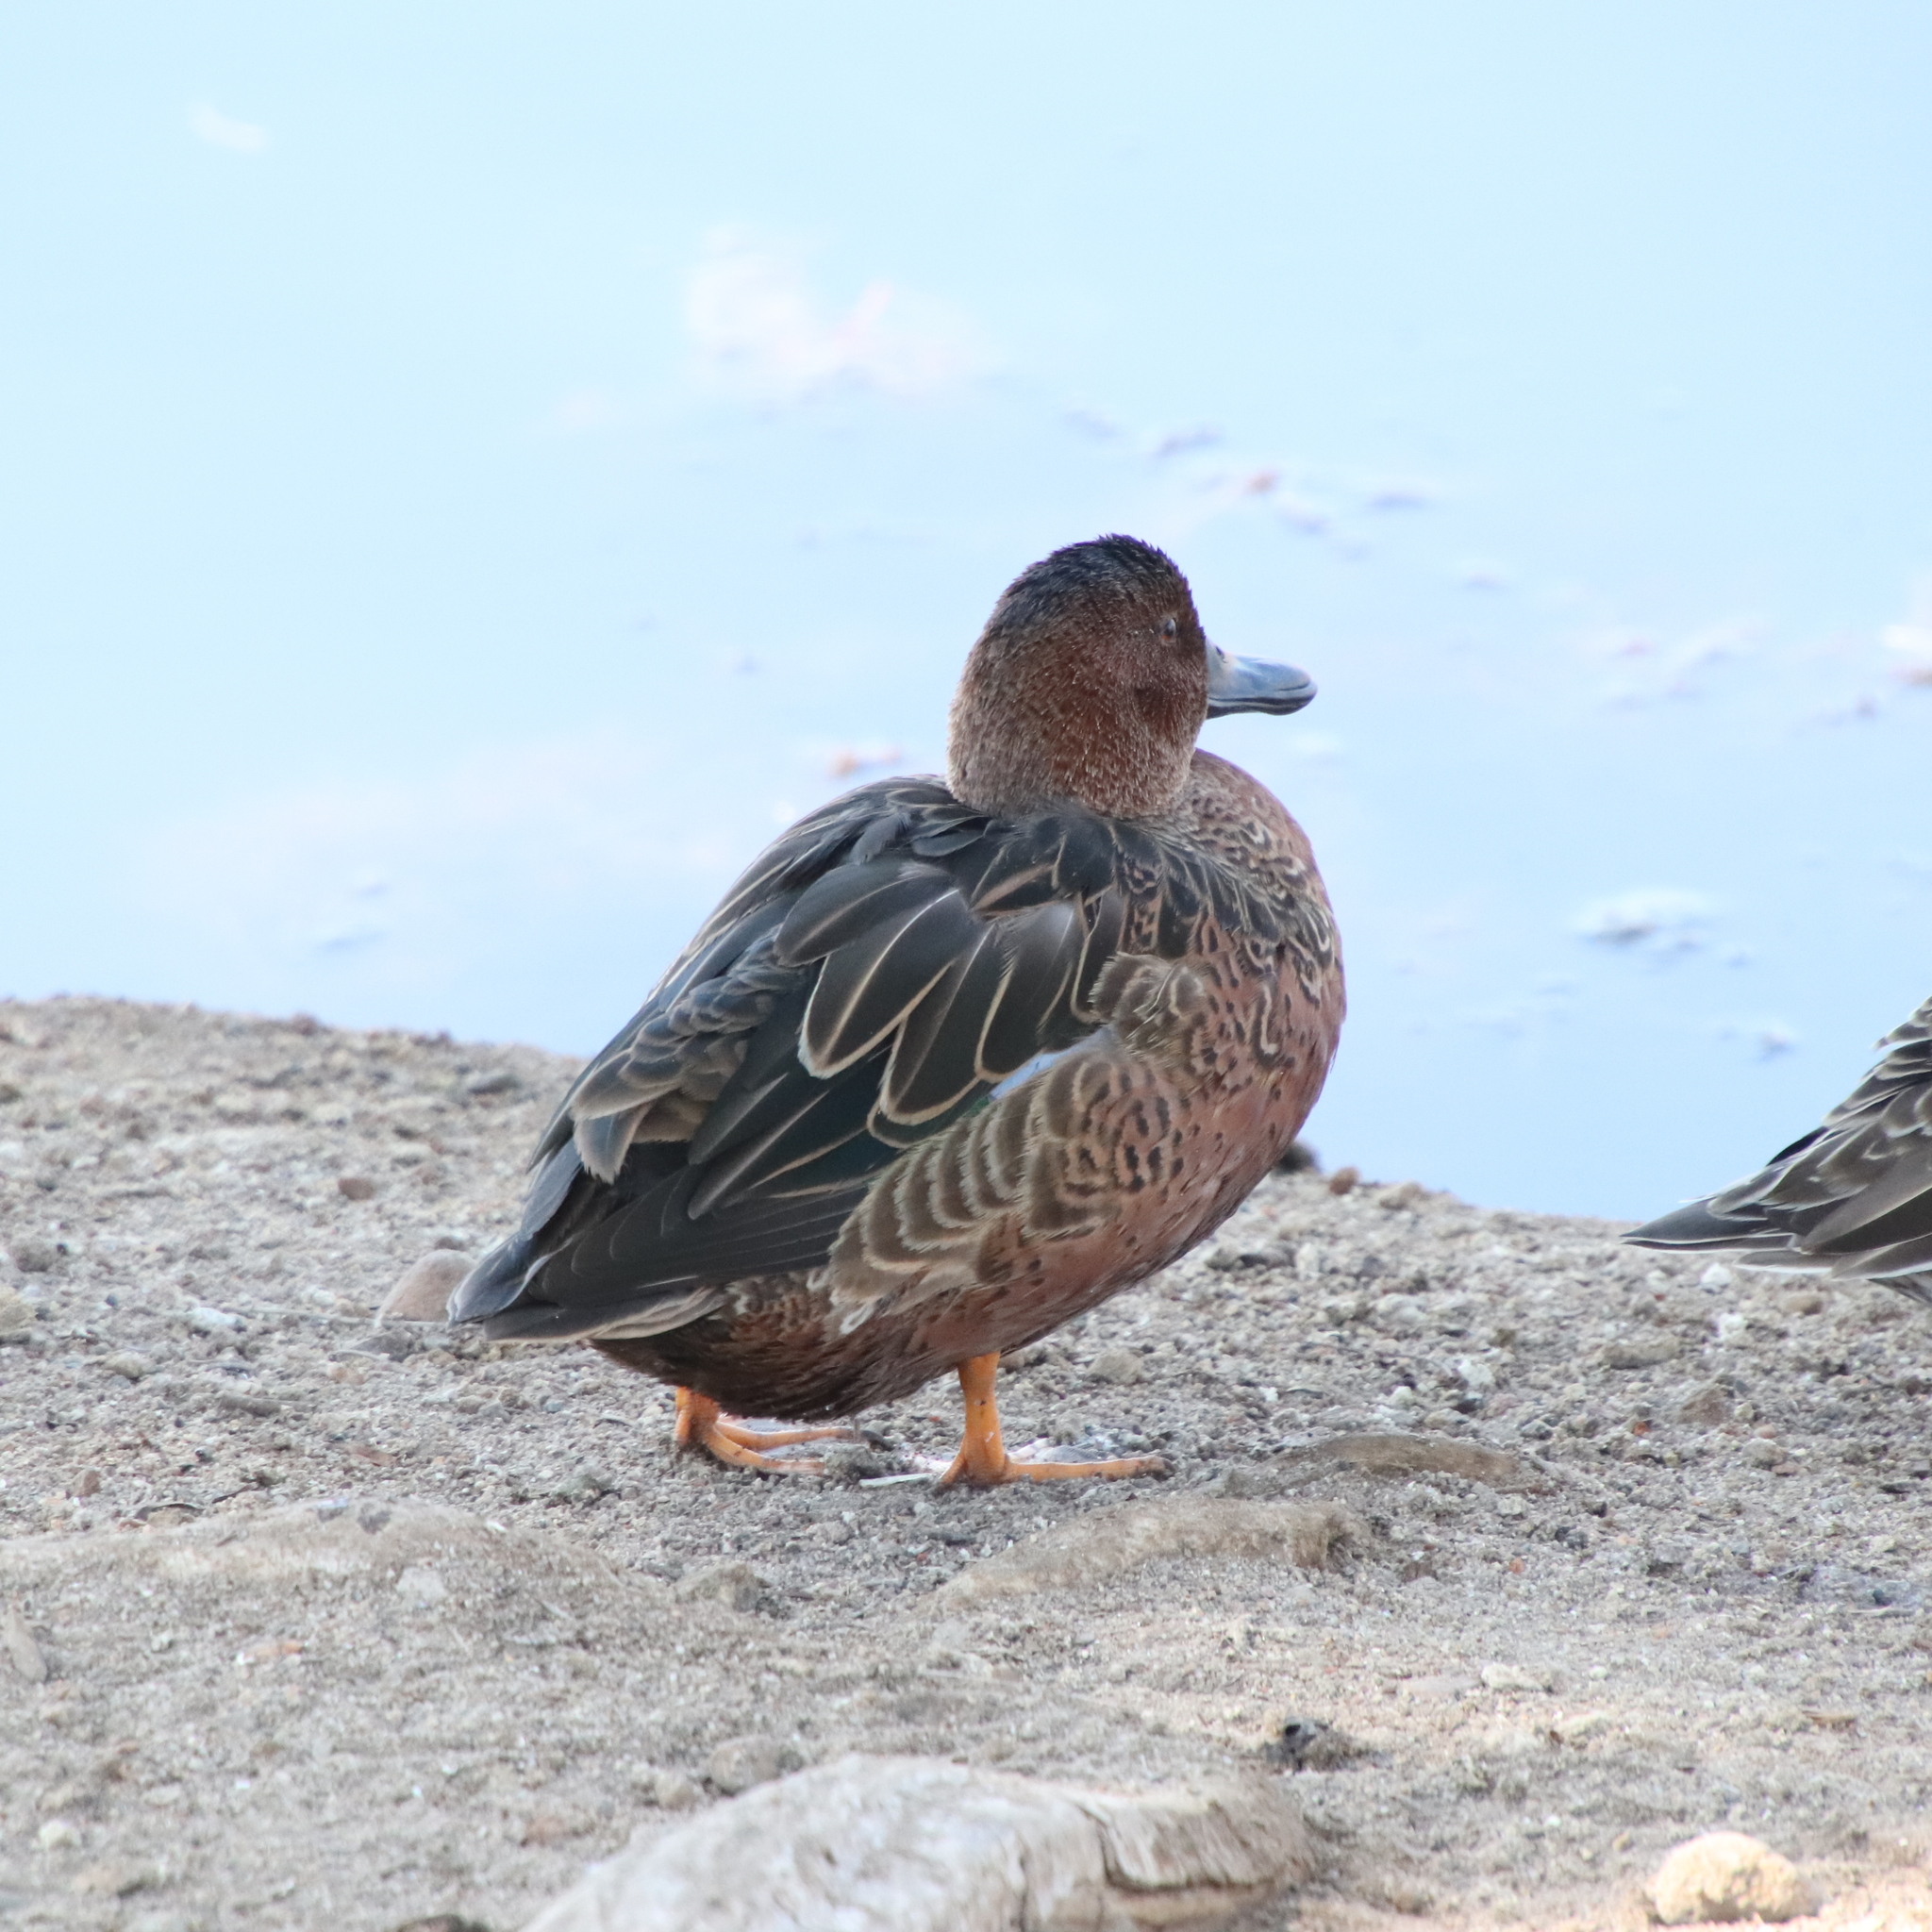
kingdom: Animalia
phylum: Chordata
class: Aves
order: Anseriformes
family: Anatidae
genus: Spatula
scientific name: Spatula cyanoptera
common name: Cinnamon teal
